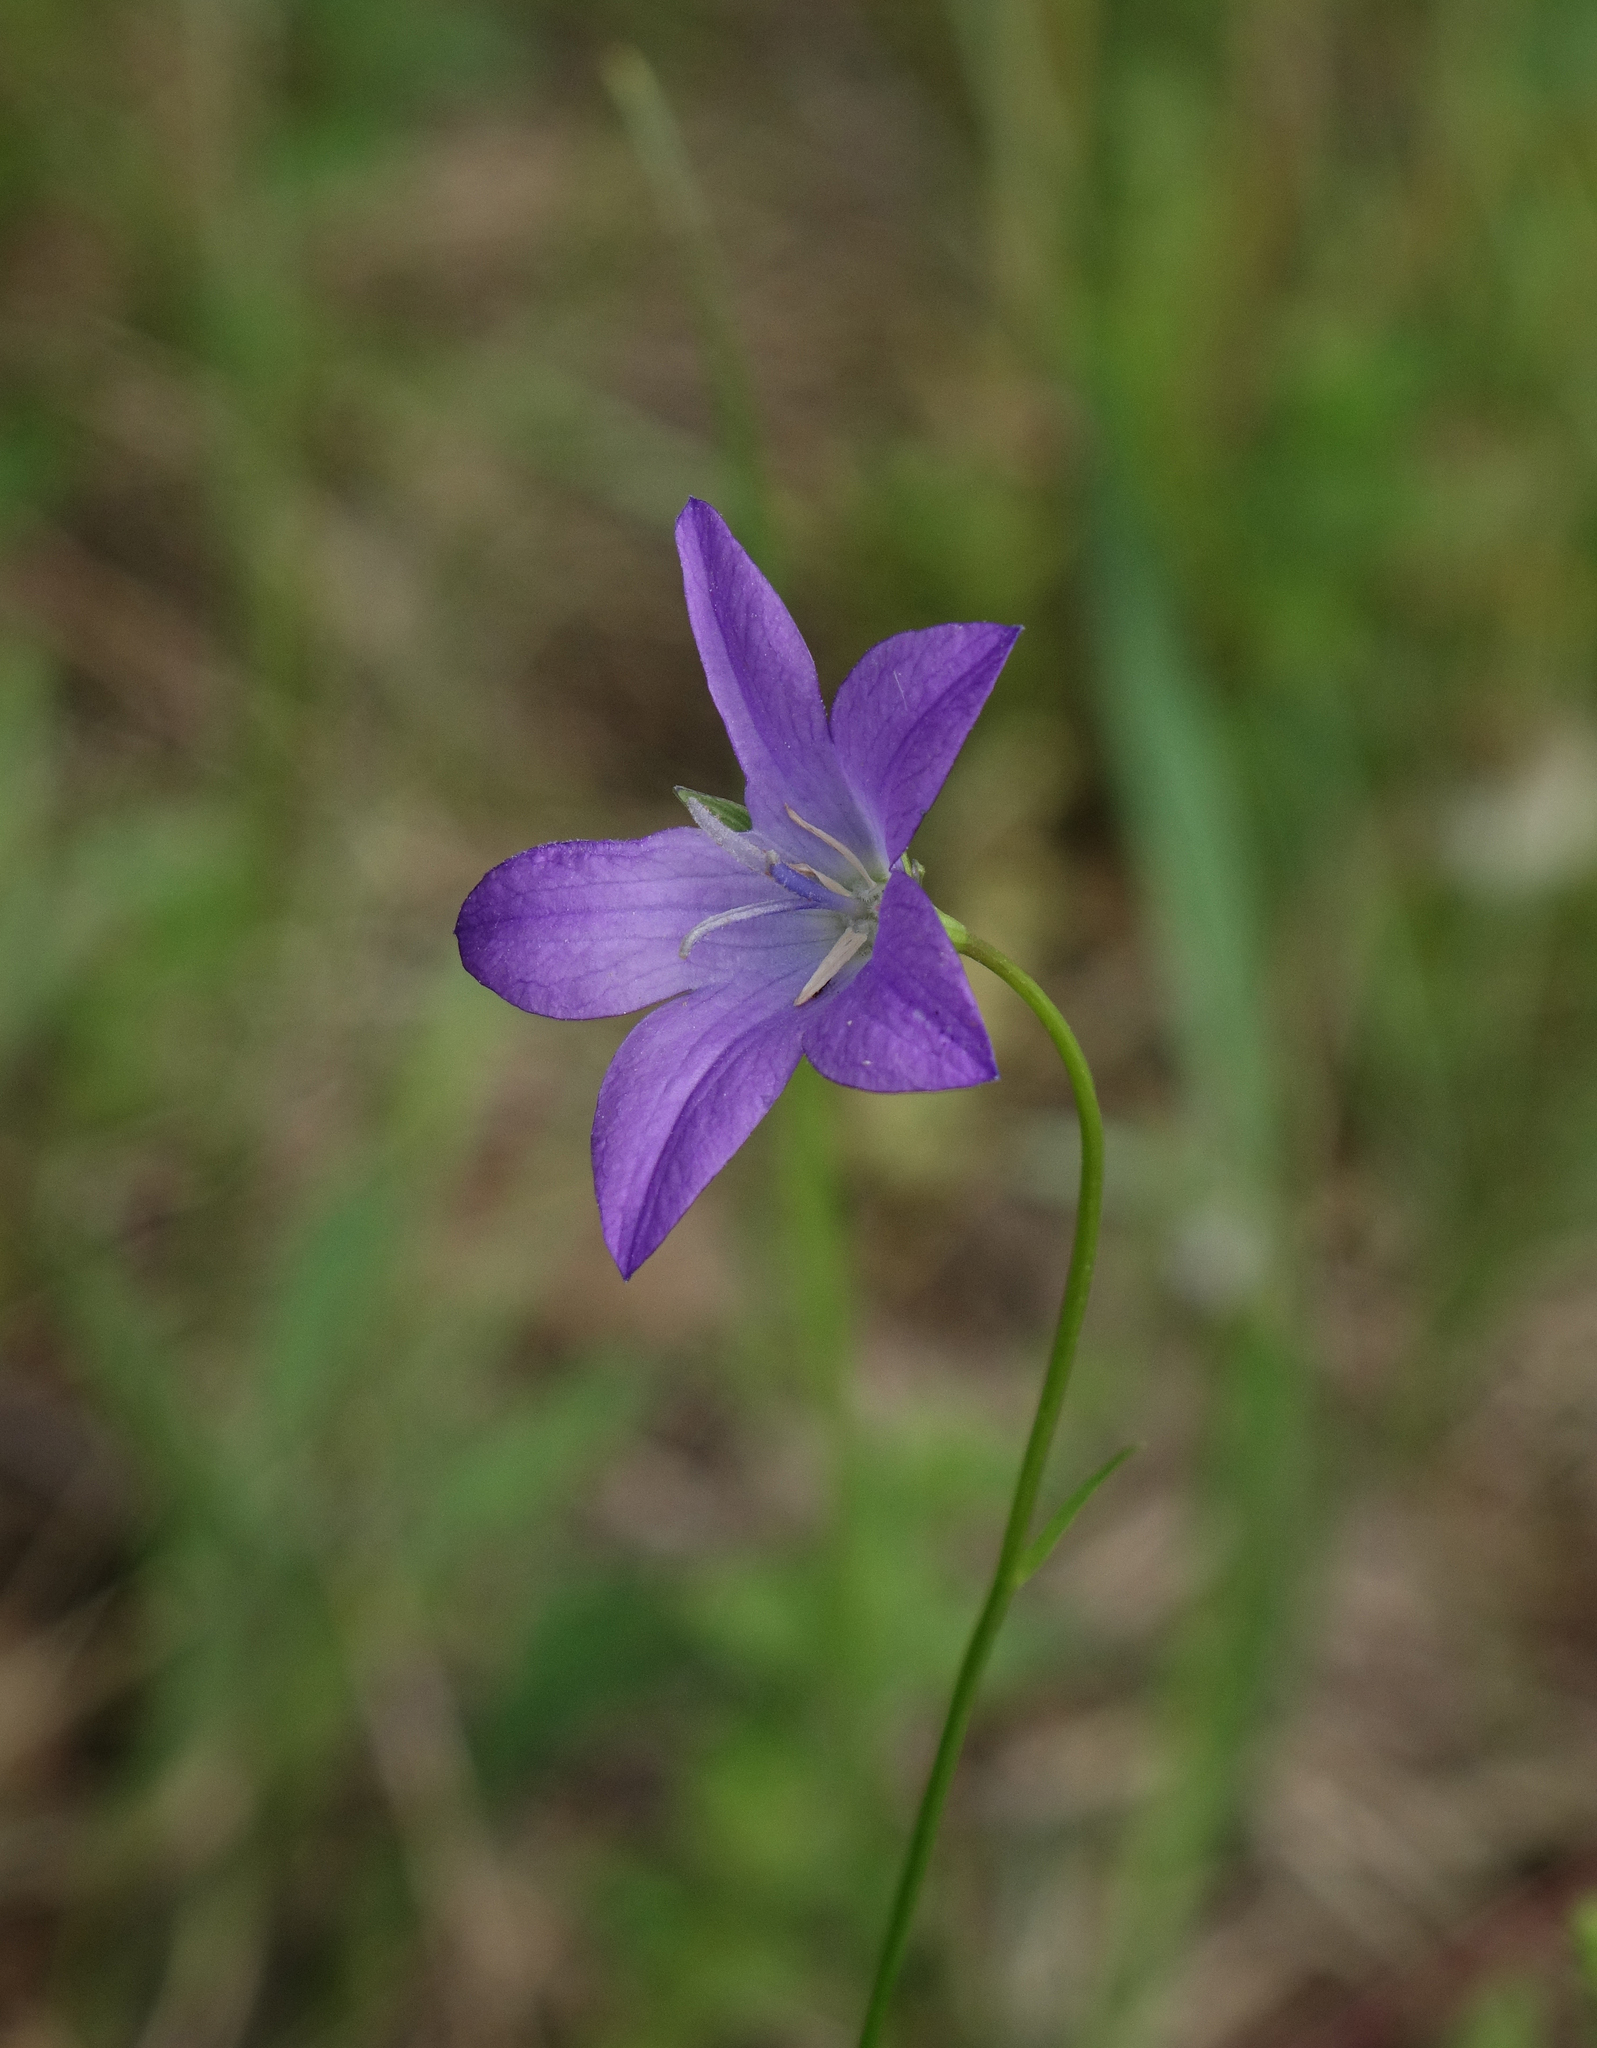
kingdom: Plantae
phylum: Tracheophyta
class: Magnoliopsida
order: Asterales
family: Campanulaceae
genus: Campanula
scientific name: Campanula stevenii
